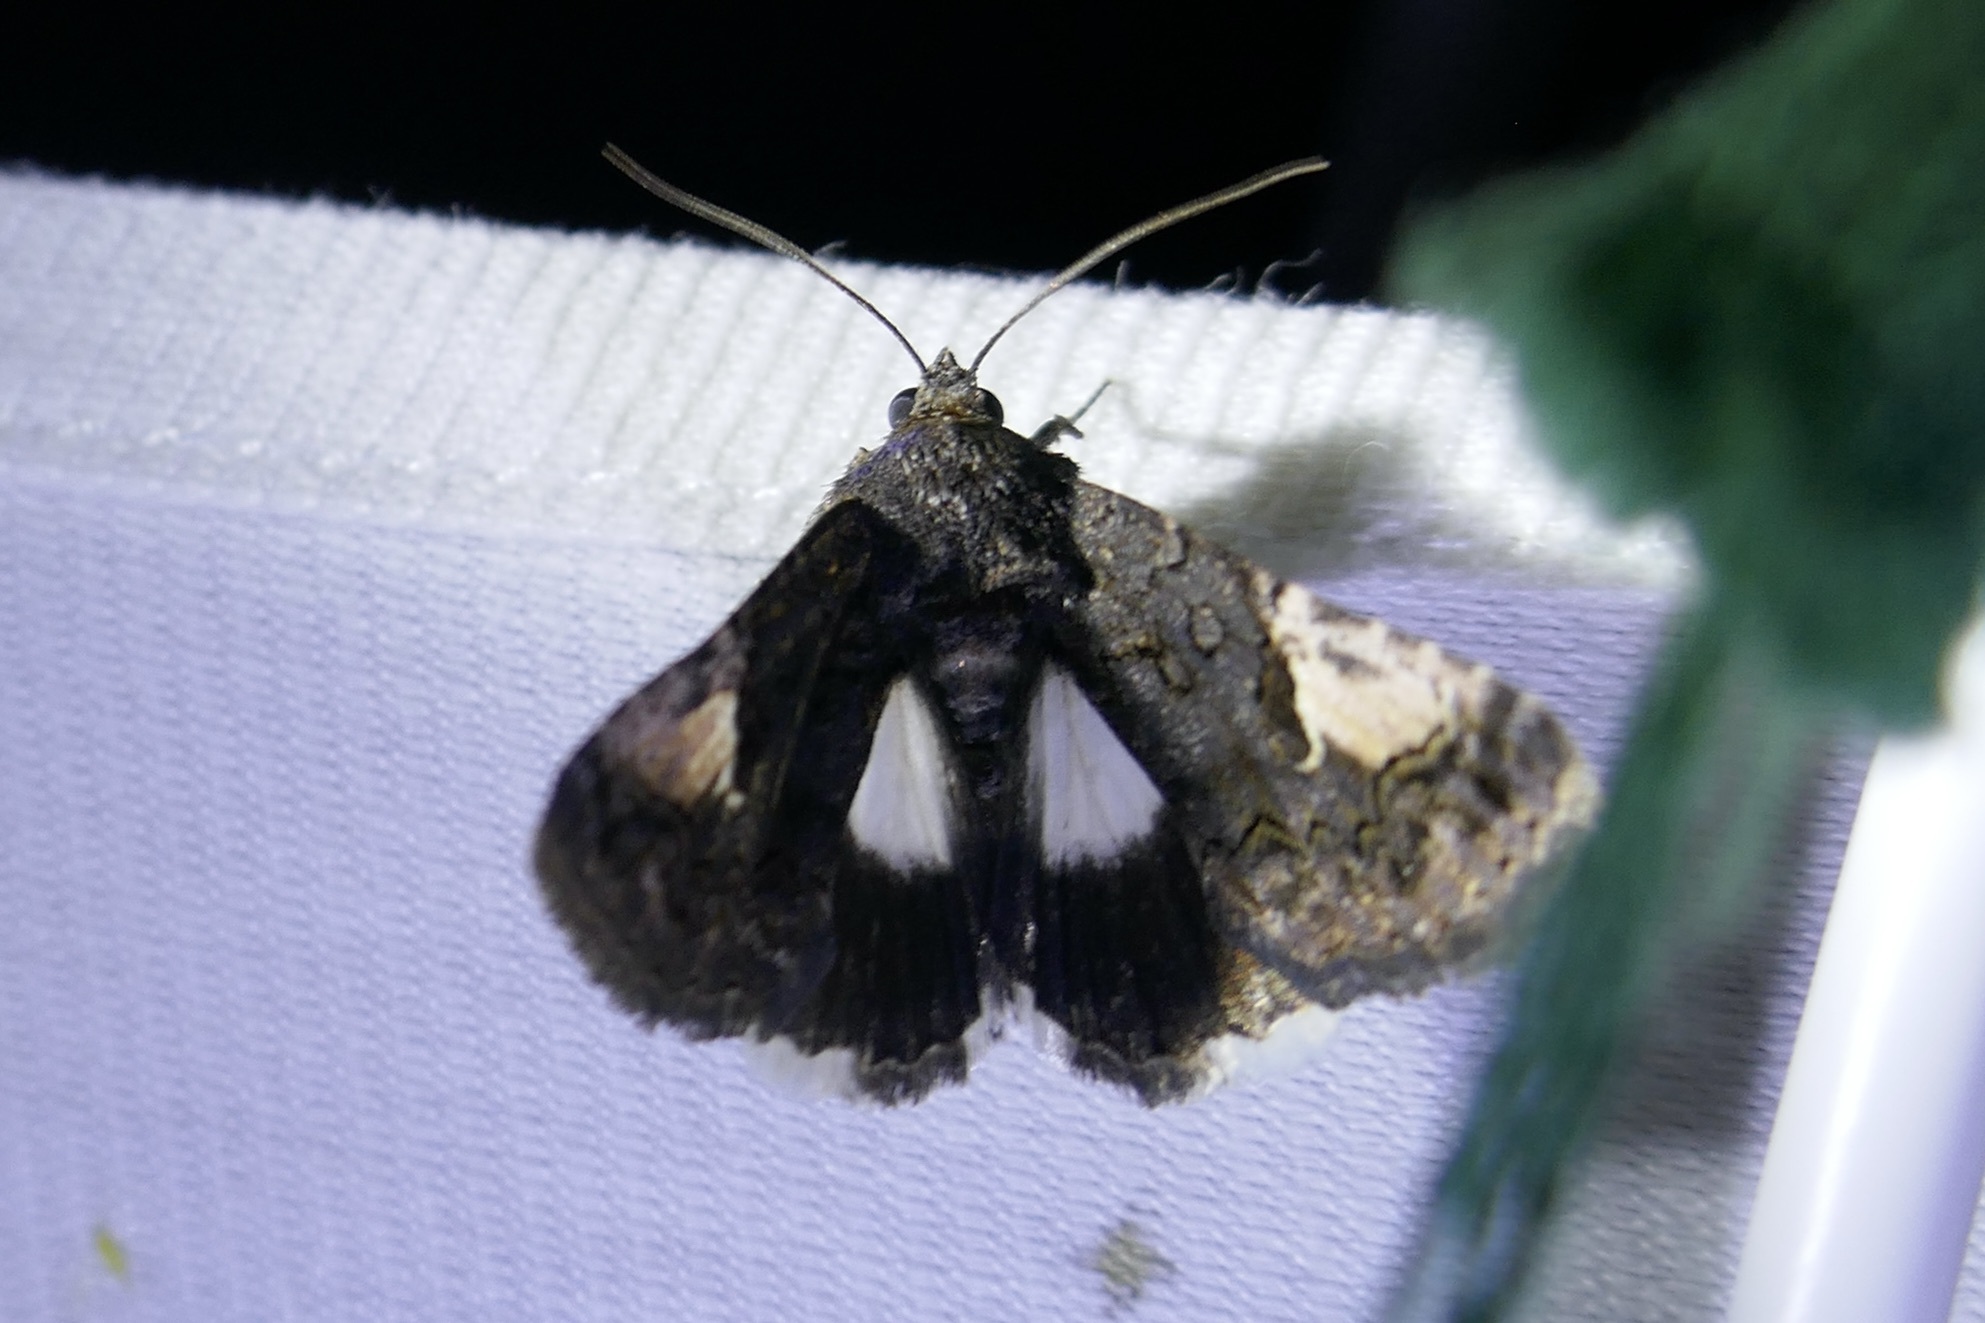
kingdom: Animalia
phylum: Arthropoda
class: Insecta
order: Lepidoptera
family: Noctuidae
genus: Aedia
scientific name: Aedia funesta
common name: The druid
